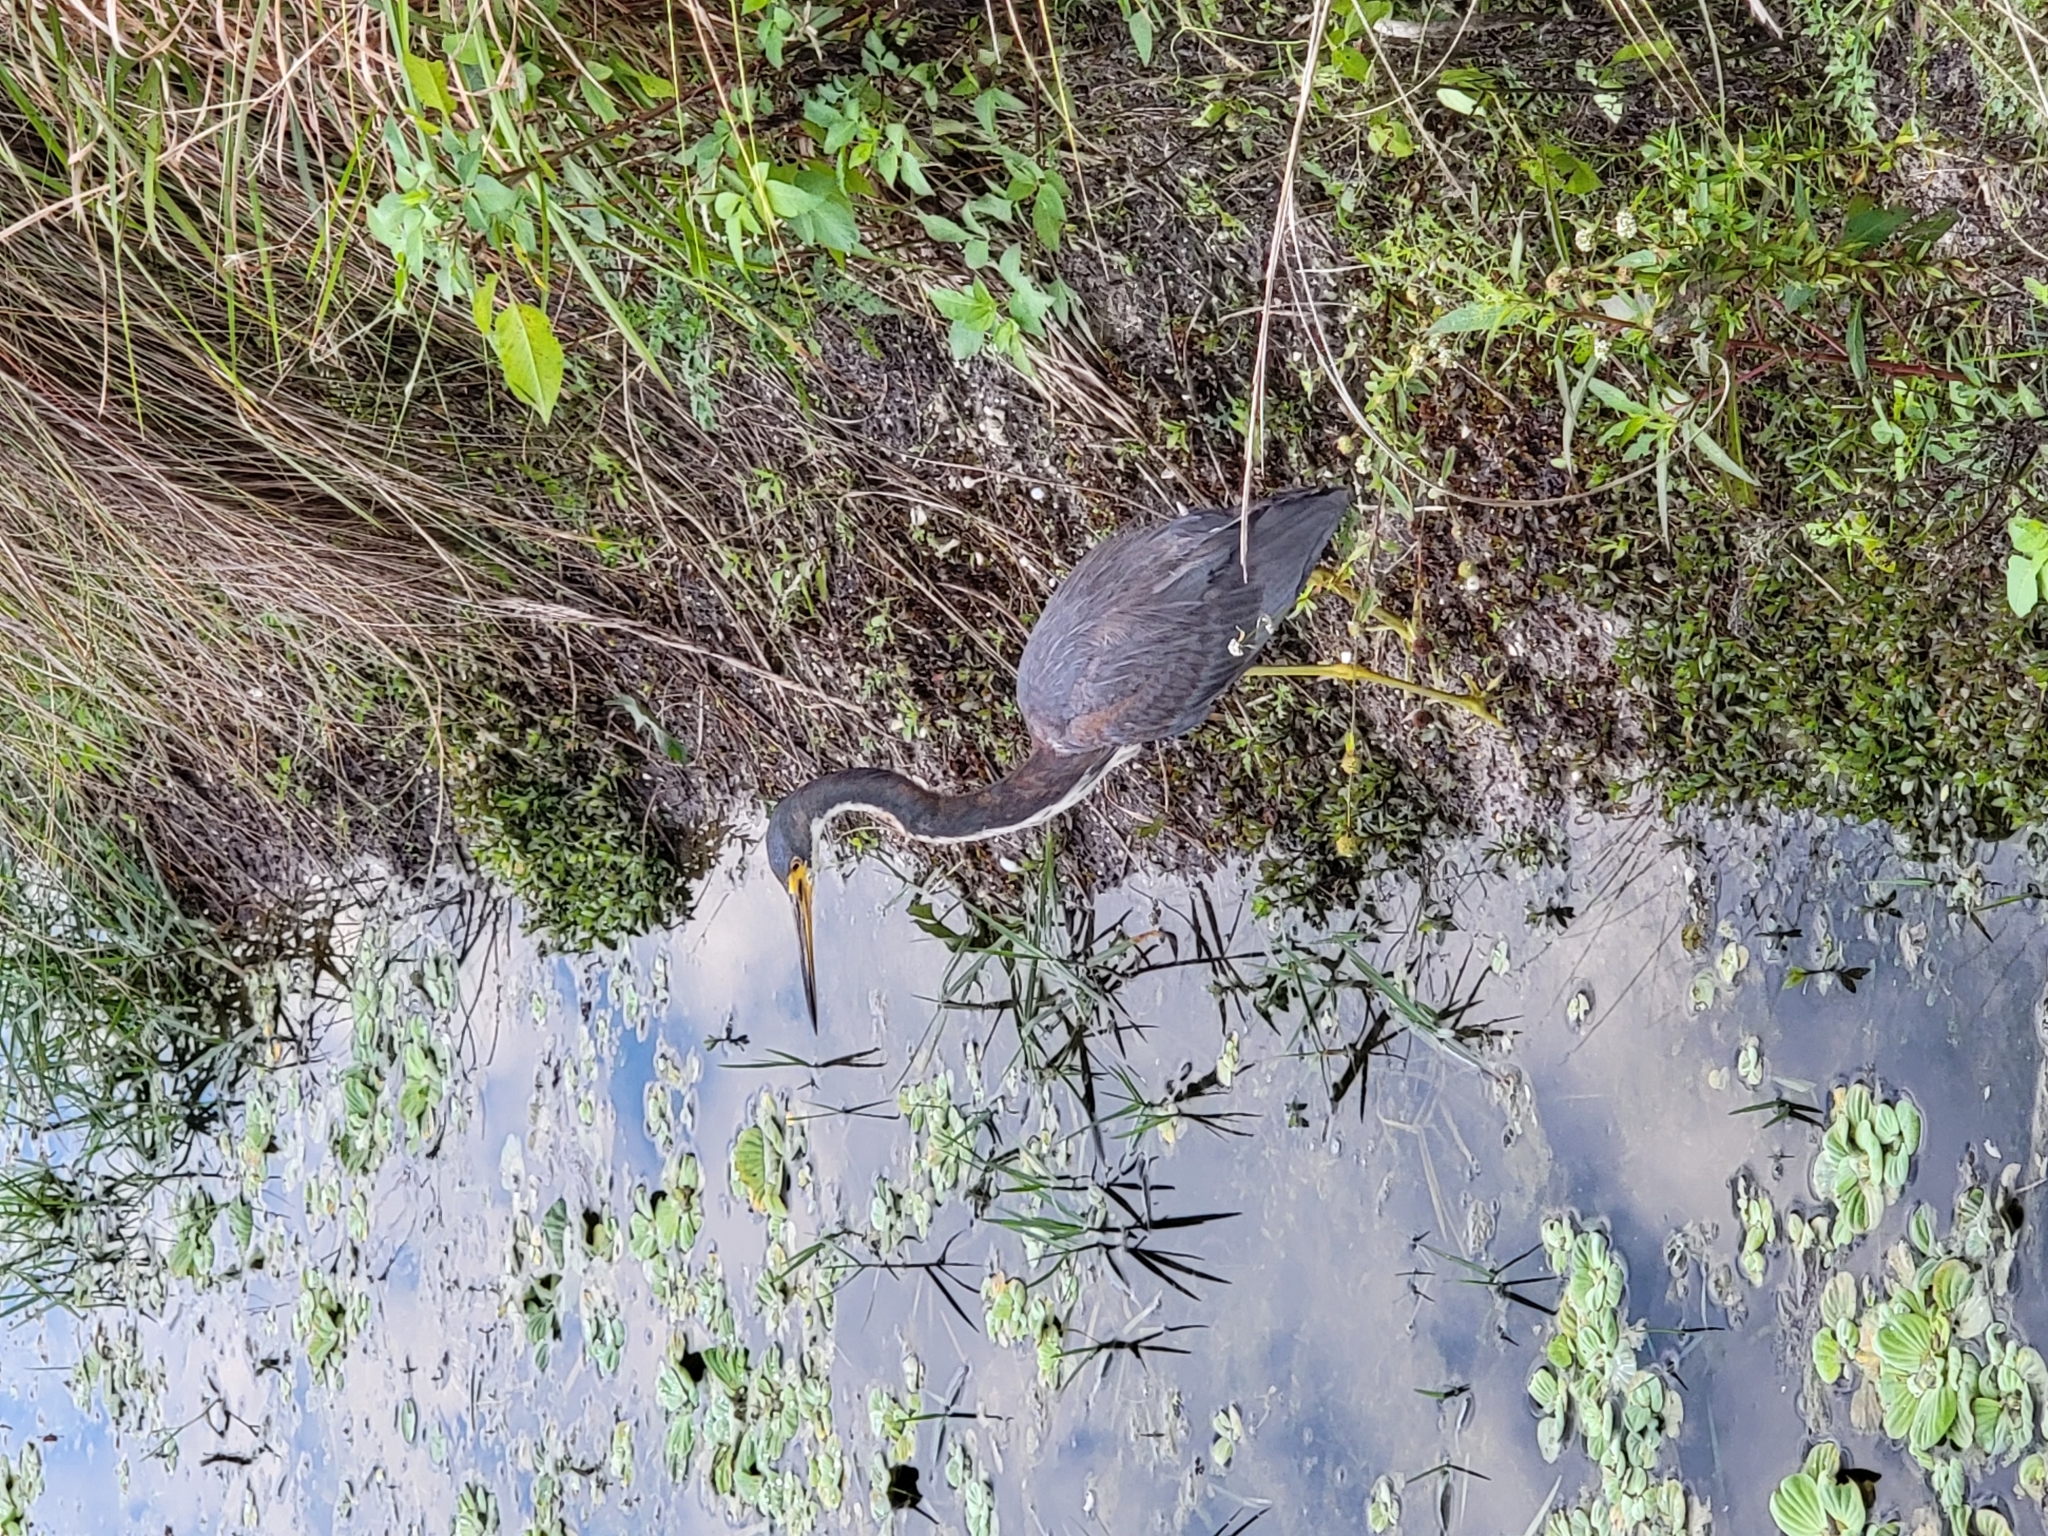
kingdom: Animalia
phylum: Chordata
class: Aves
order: Pelecaniformes
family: Ardeidae
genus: Egretta
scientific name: Egretta tricolor
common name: Tricolored heron
